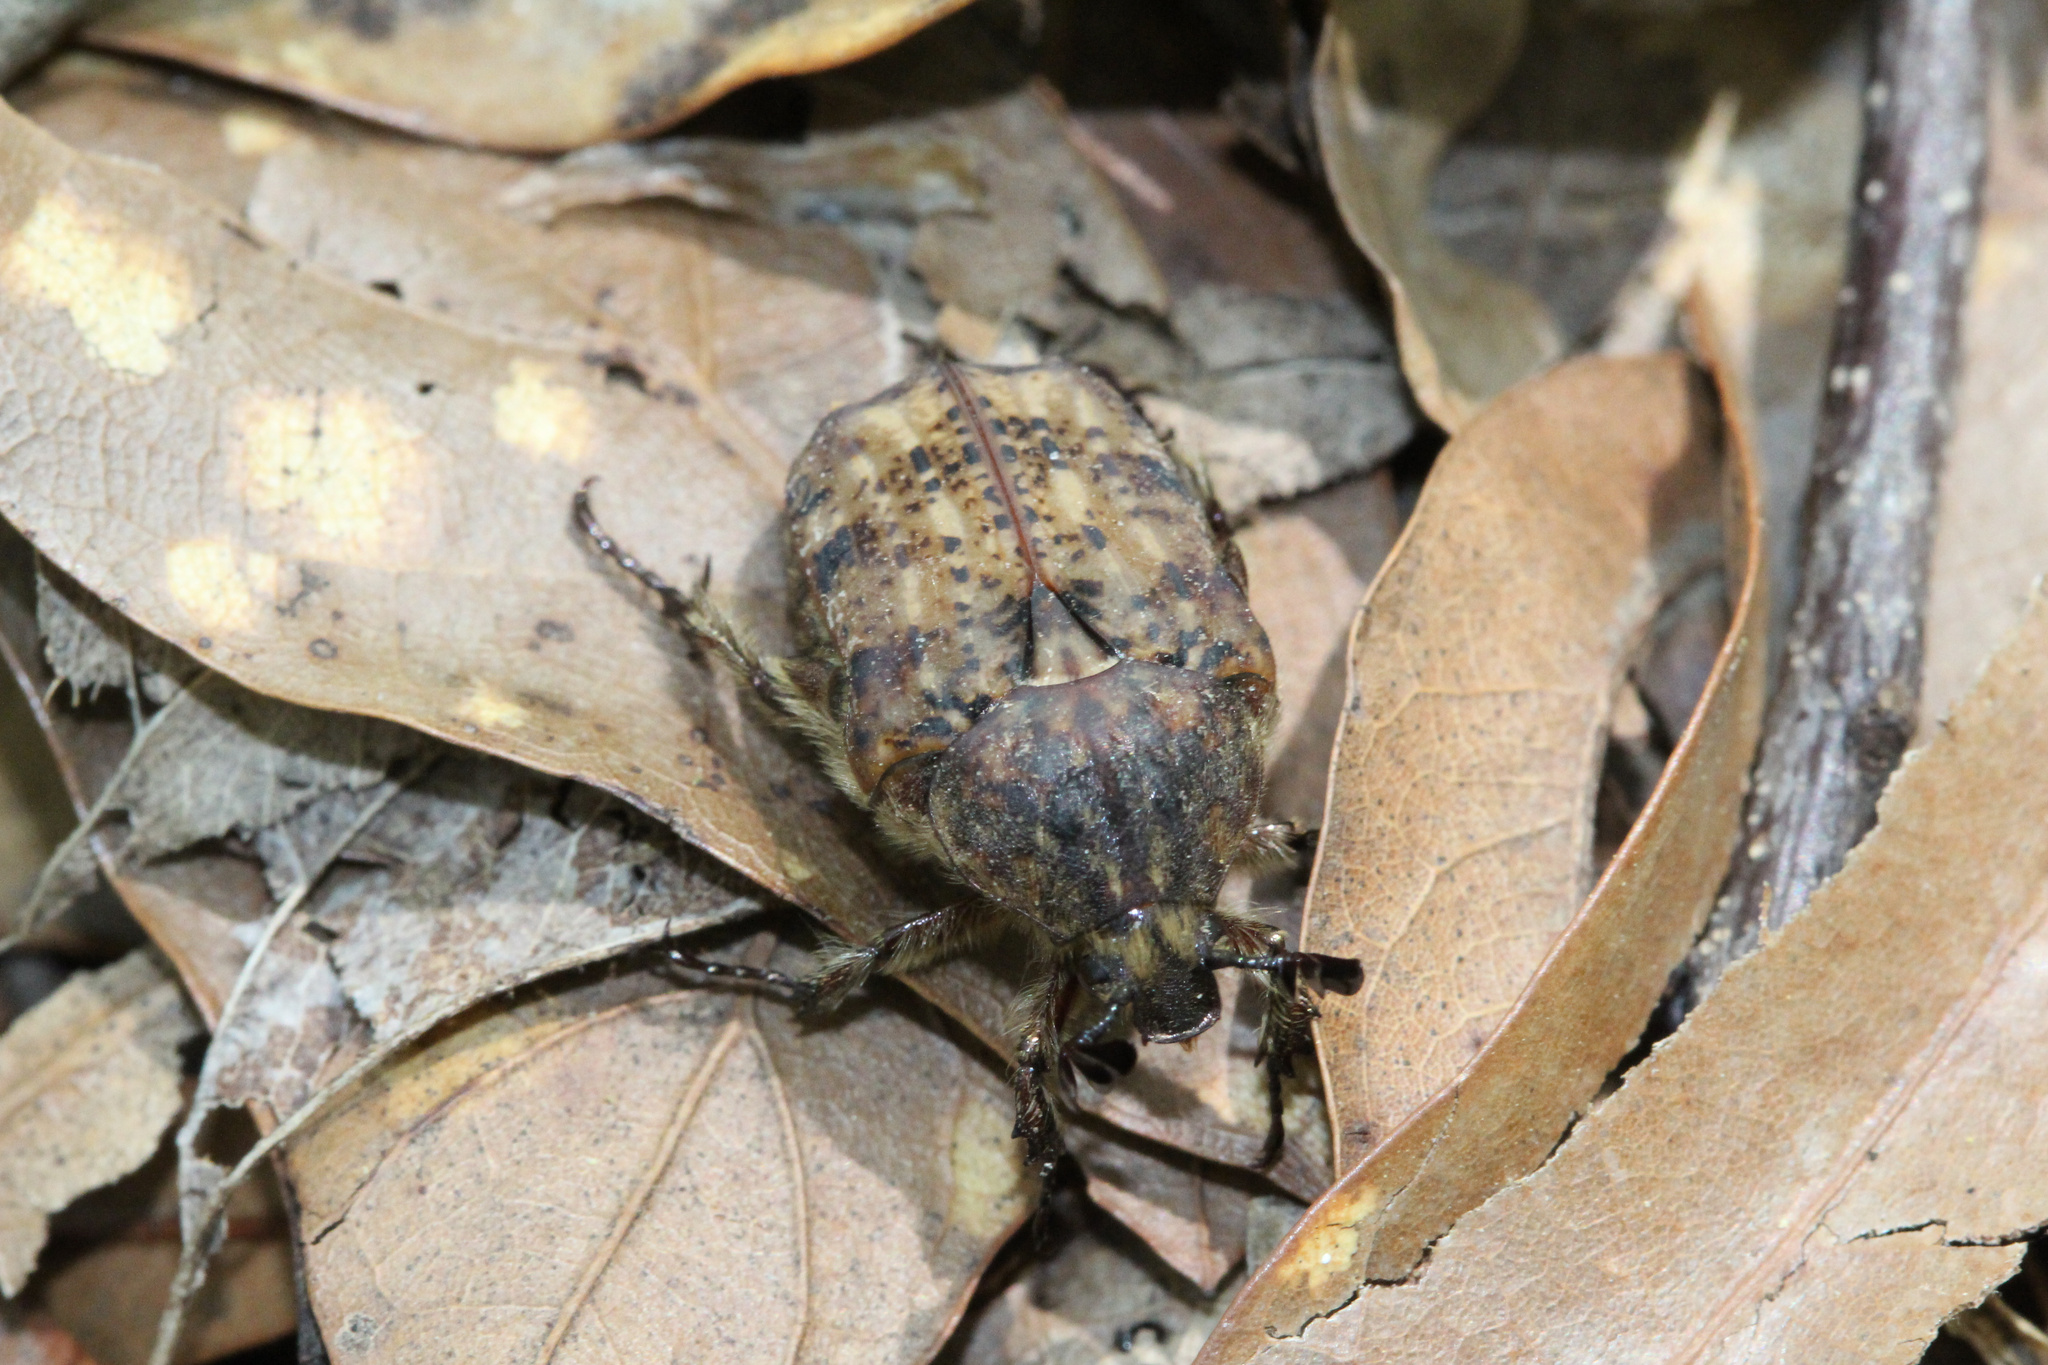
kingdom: Animalia
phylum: Arthropoda
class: Insecta
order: Coleoptera
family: Scarabaeidae
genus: Euphoria
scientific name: Euphoria inda
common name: Bumble flower beetle
